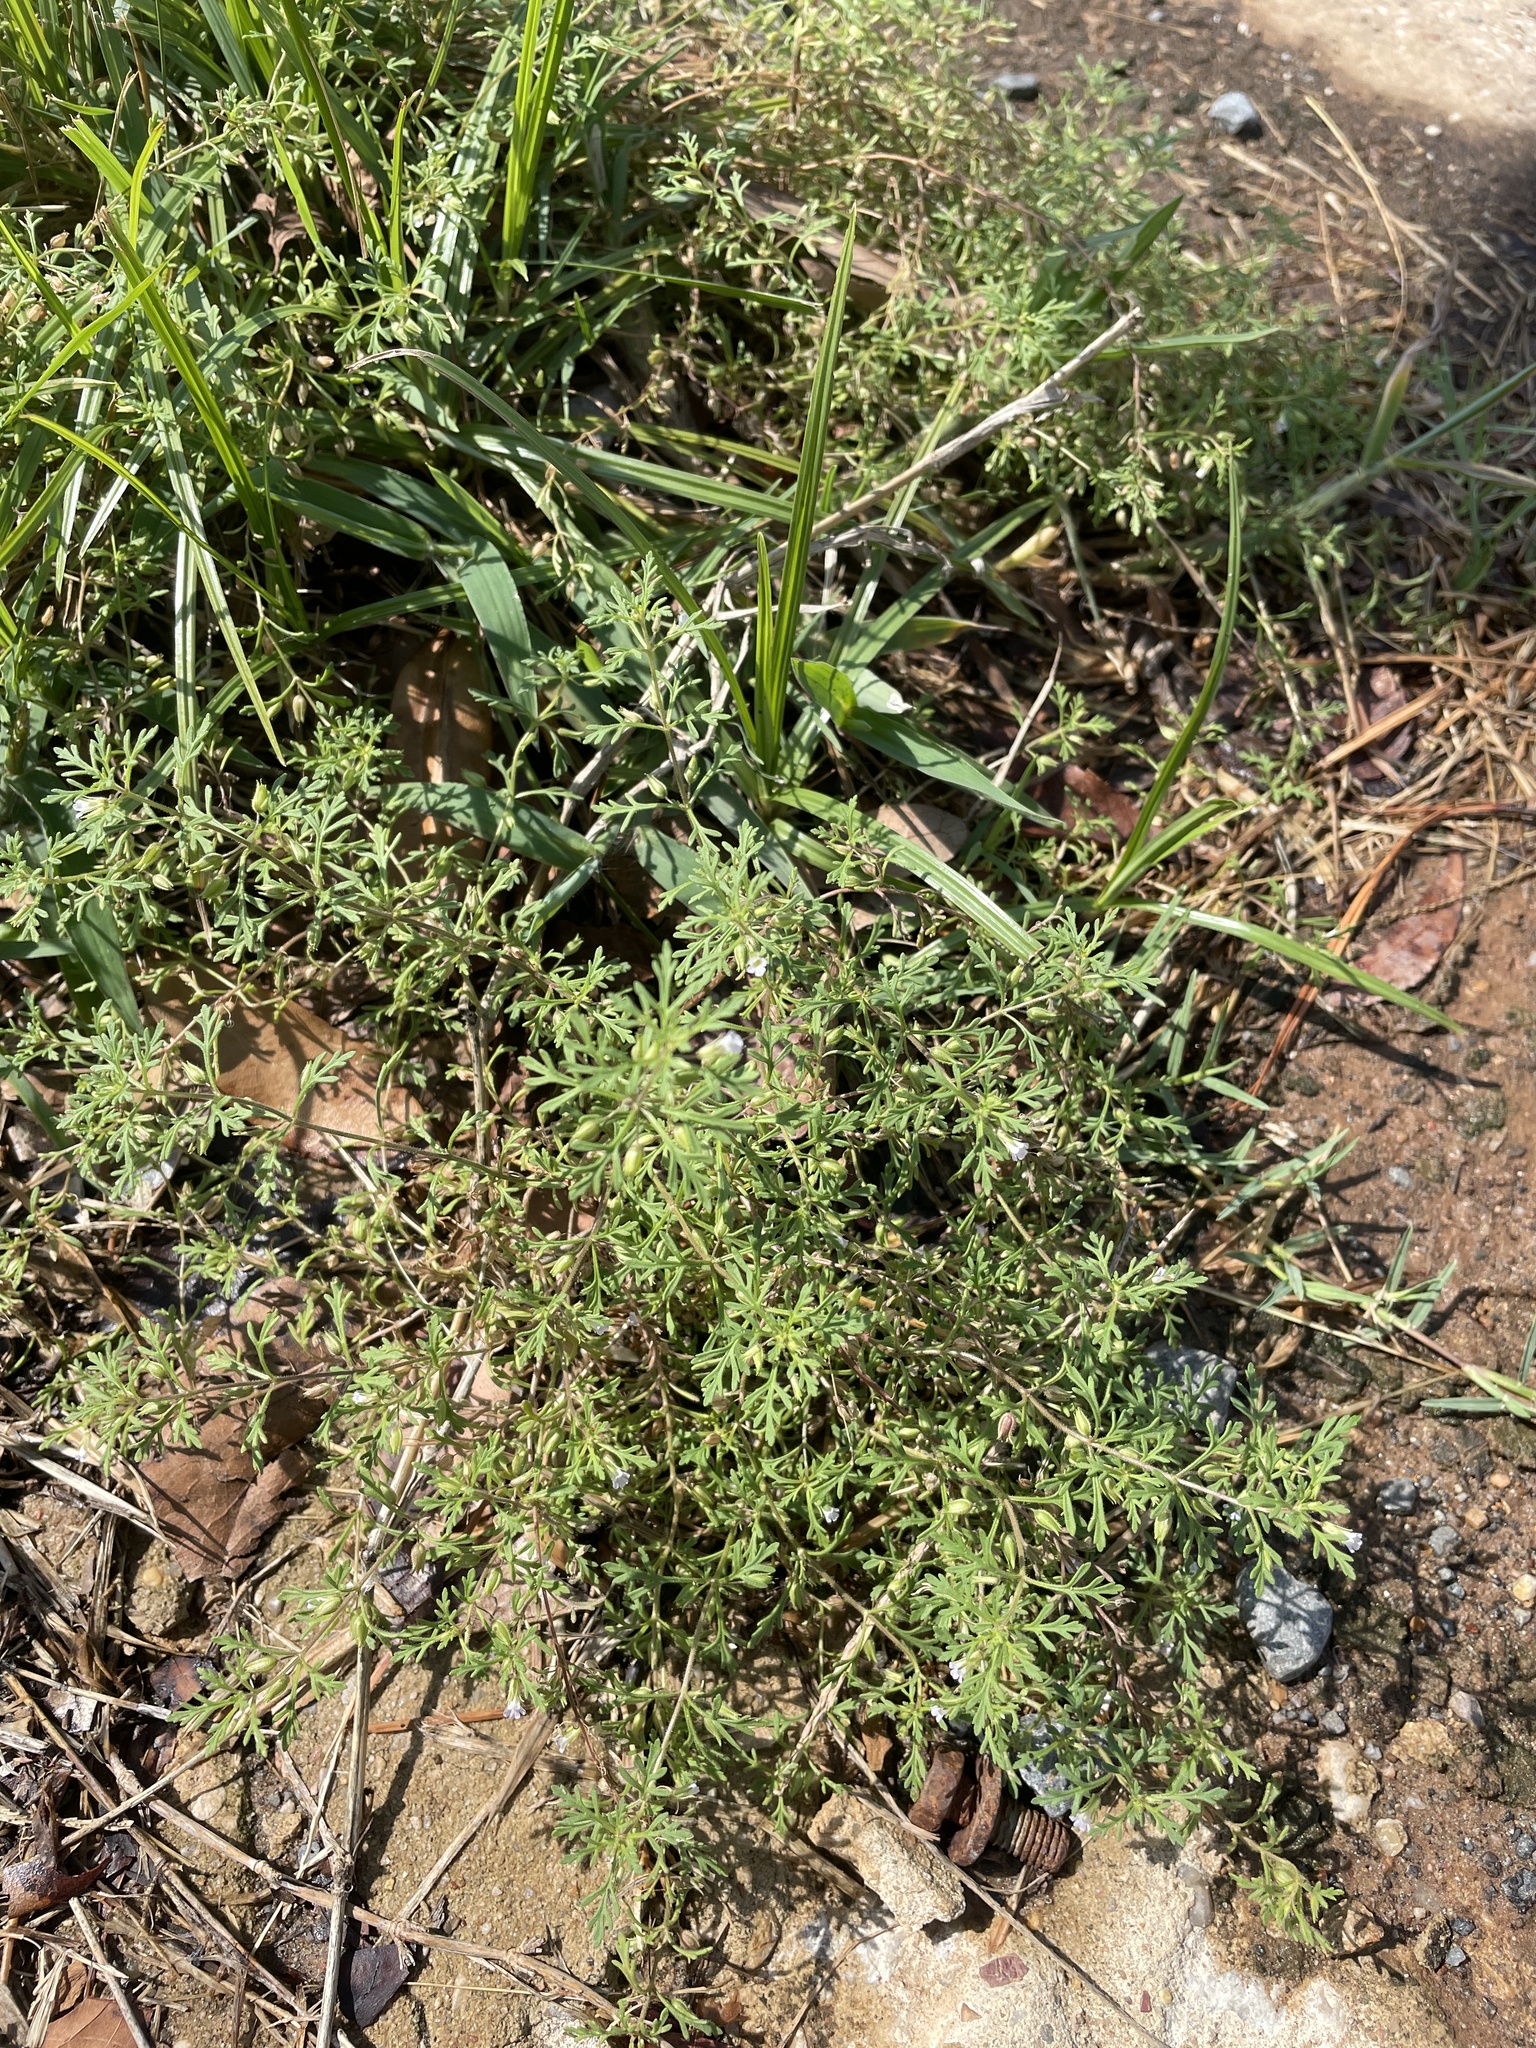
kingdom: Plantae
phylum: Tracheophyta
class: Magnoliopsida
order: Lamiales
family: Plantaginaceae
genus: Leucospora
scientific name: Leucospora multifida
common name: Narrow-leaf paleseed
